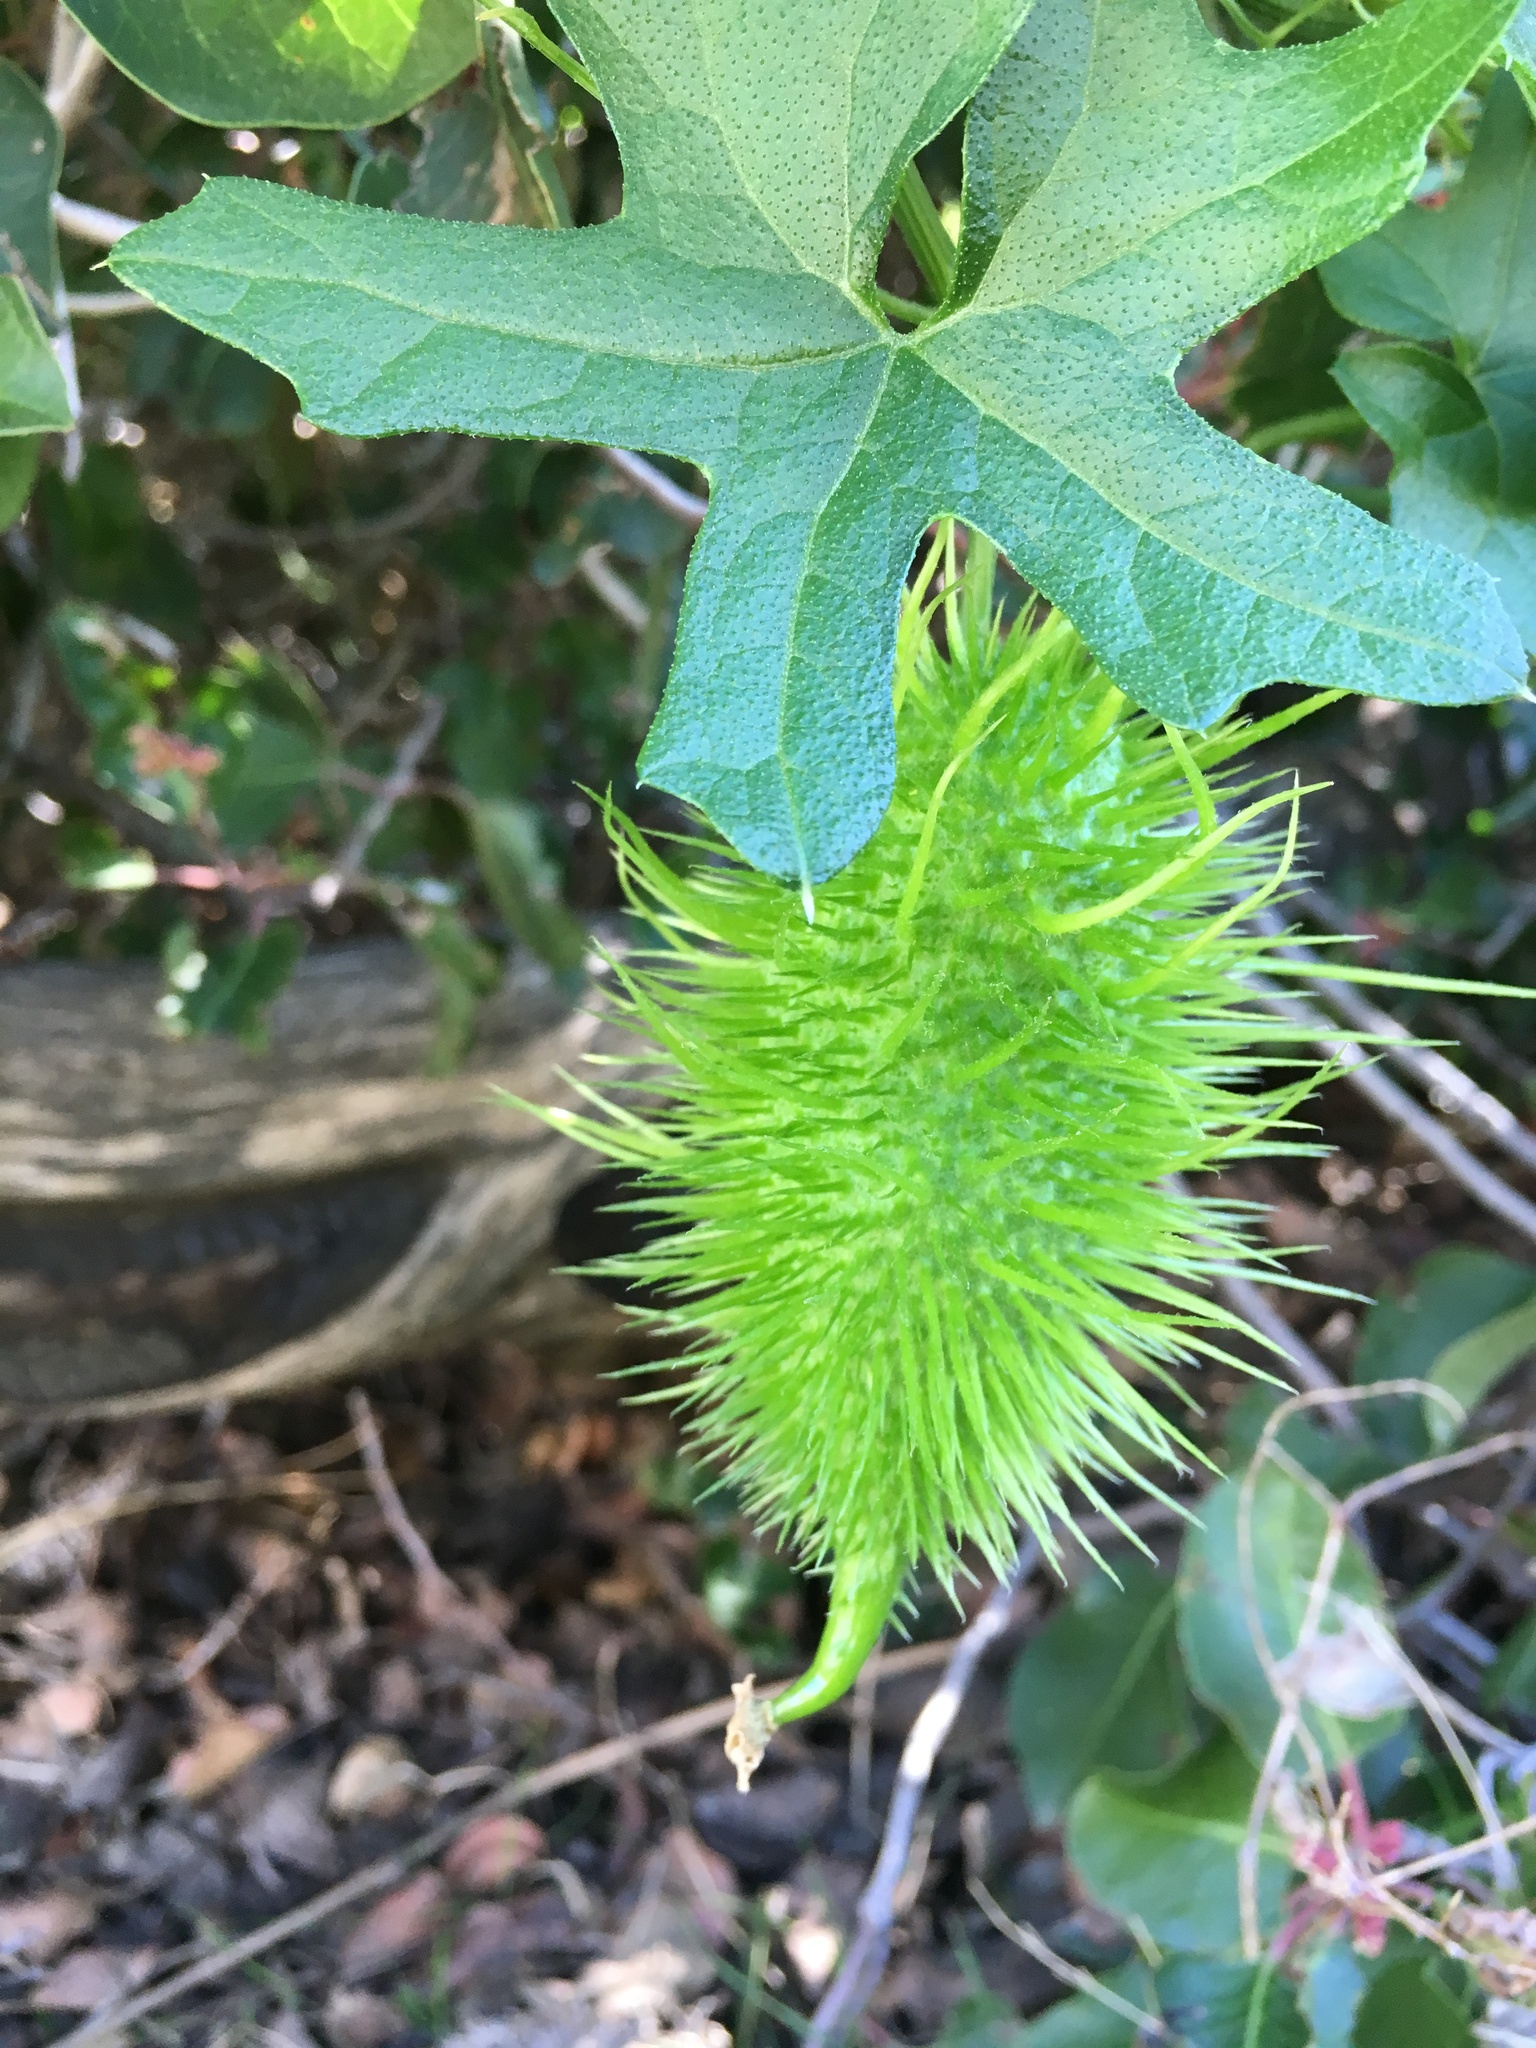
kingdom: Plantae
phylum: Tracheophyta
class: Magnoliopsida
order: Cucurbitales
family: Cucurbitaceae
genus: Marah
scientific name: Marah macrocarpa
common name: Cucamonga manroot
